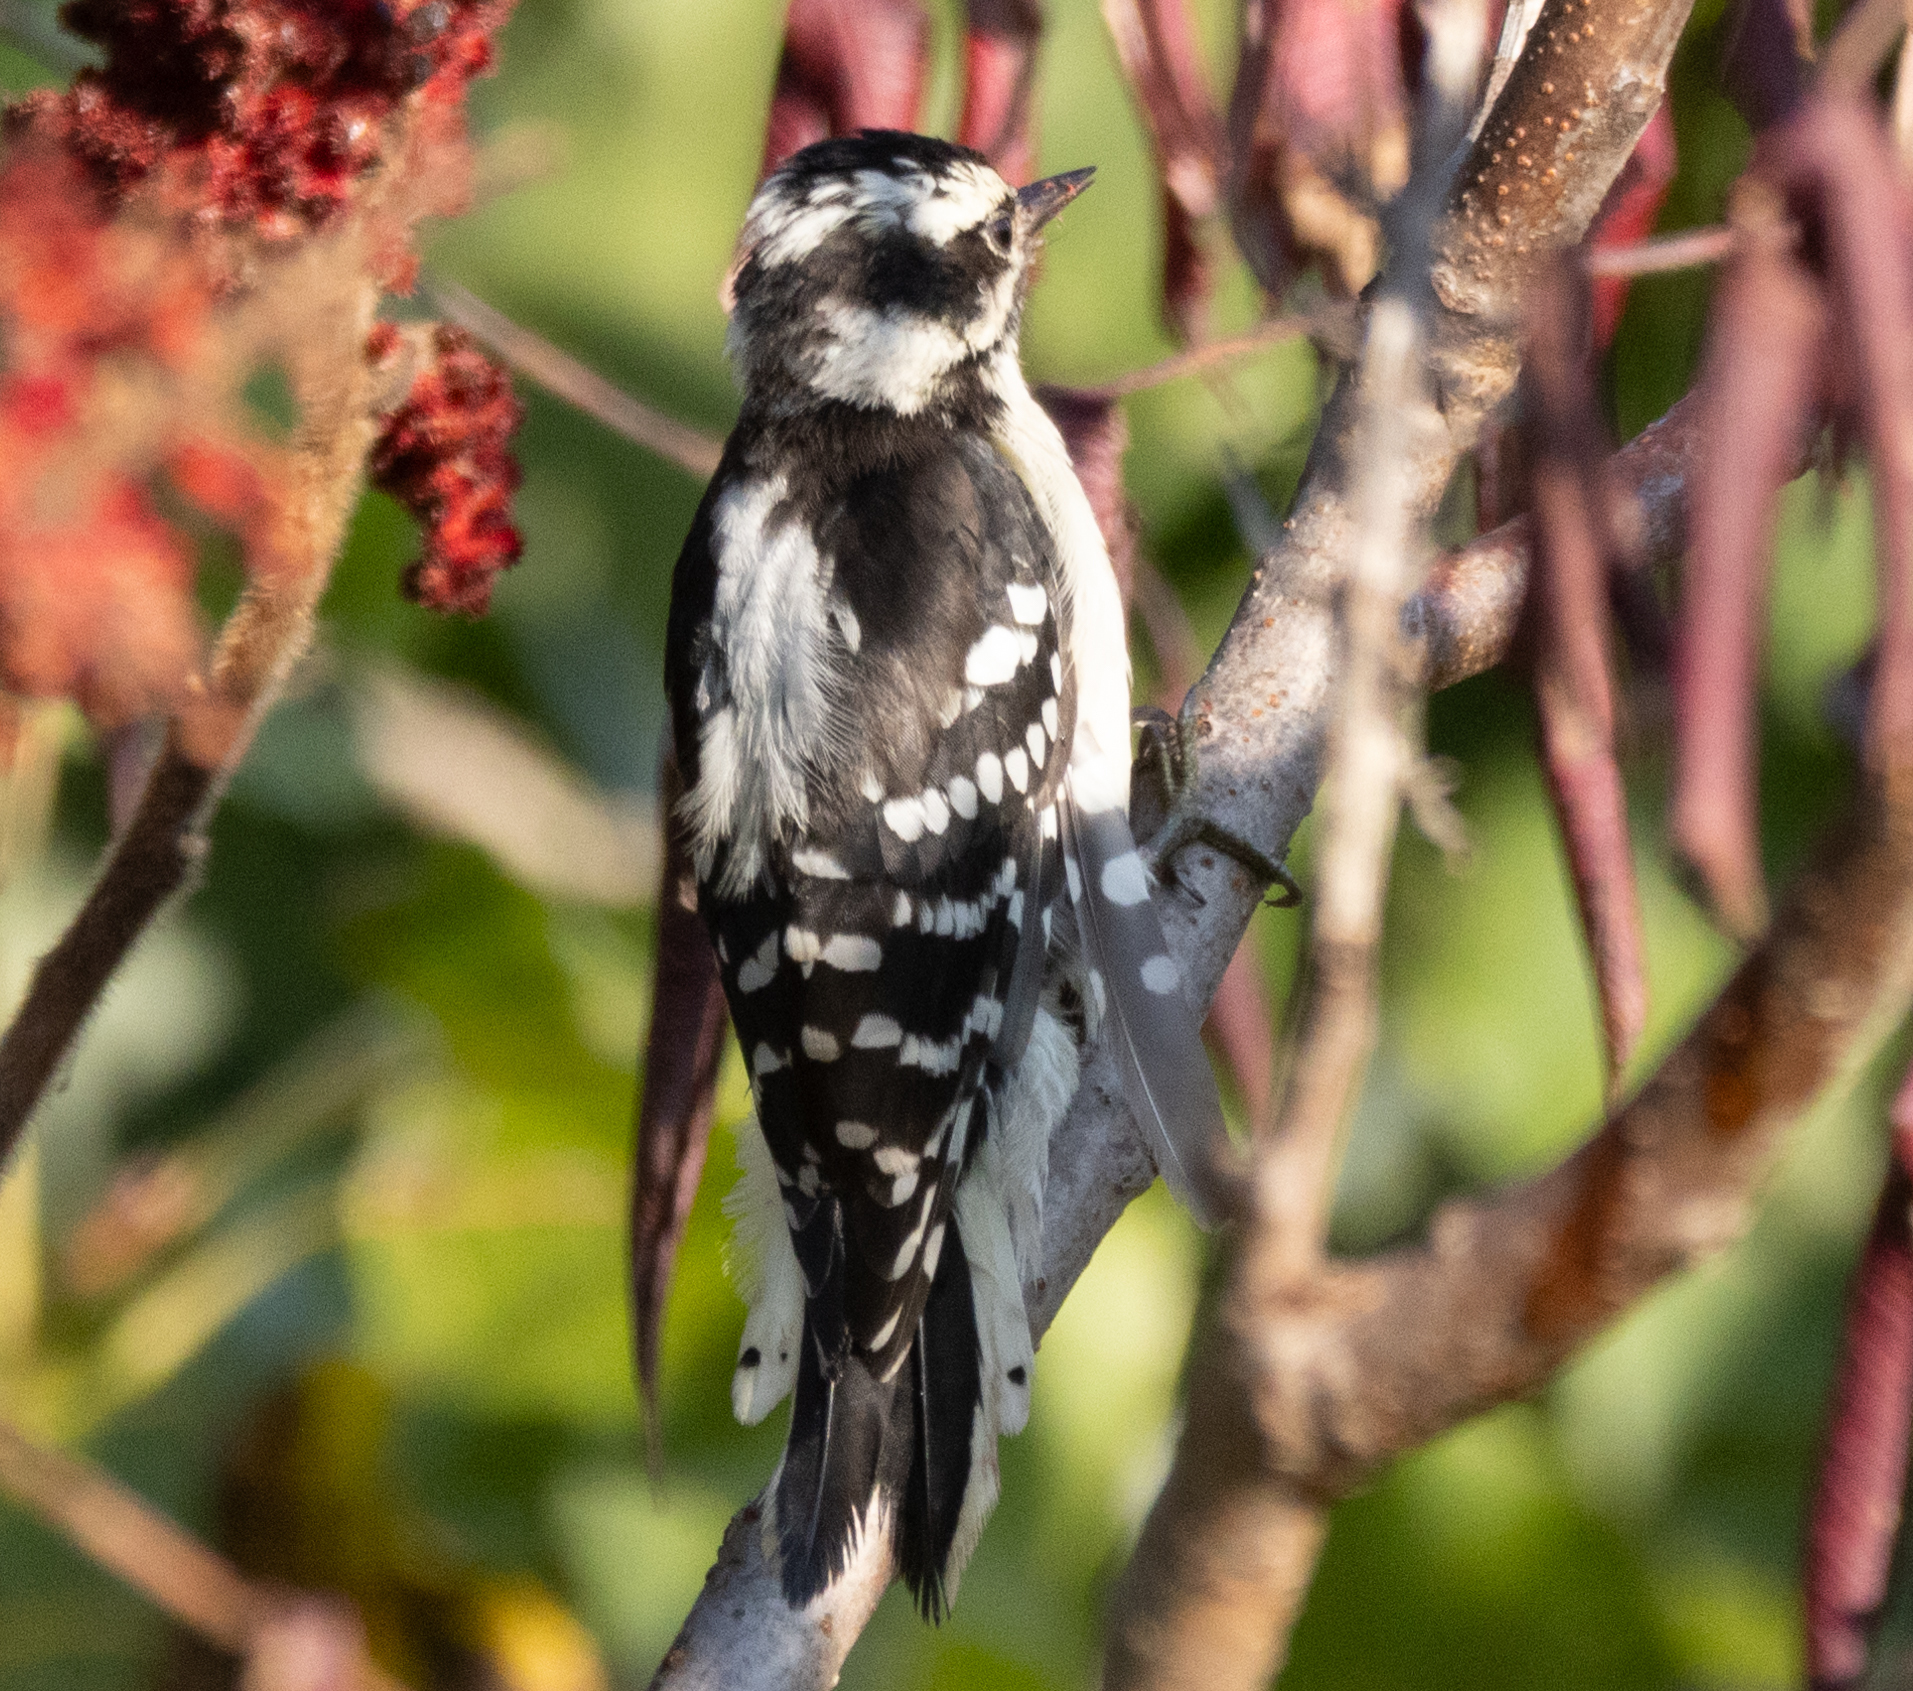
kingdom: Animalia
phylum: Chordata
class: Aves
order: Piciformes
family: Picidae
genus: Dryobates
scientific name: Dryobates pubescens
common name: Downy woodpecker
